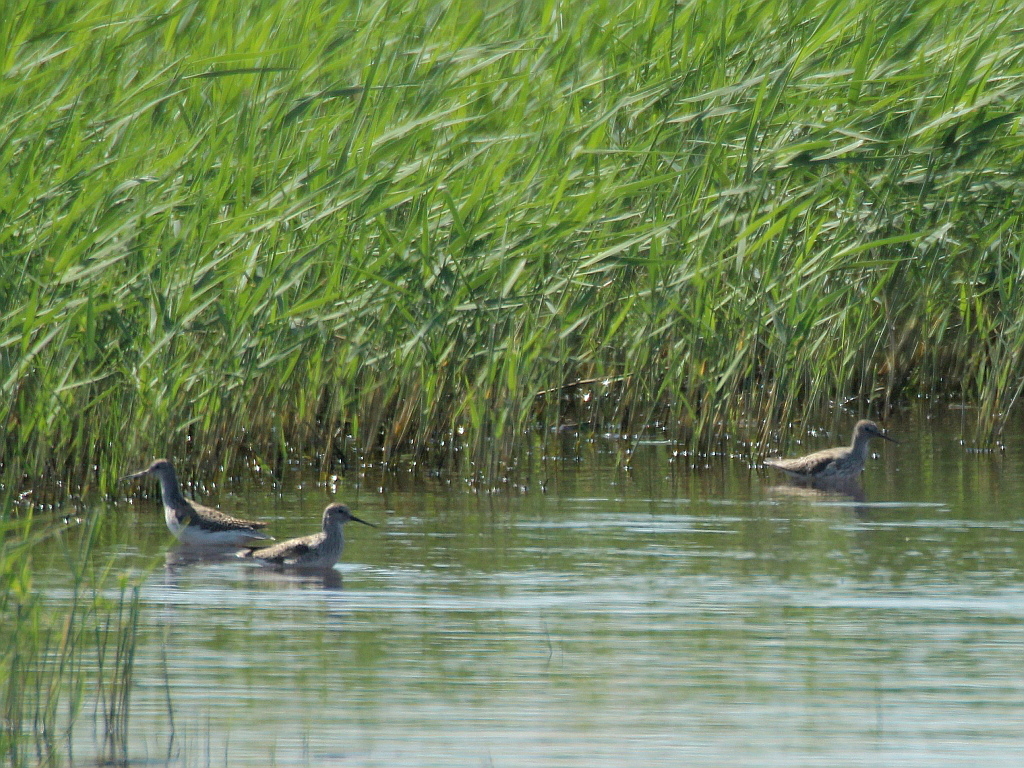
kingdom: Animalia
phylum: Chordata
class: Aves
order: Charadriiformes
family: Scolopacidae
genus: Tringa
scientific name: Tringa stagnatilis
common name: Marsh sandpiper
